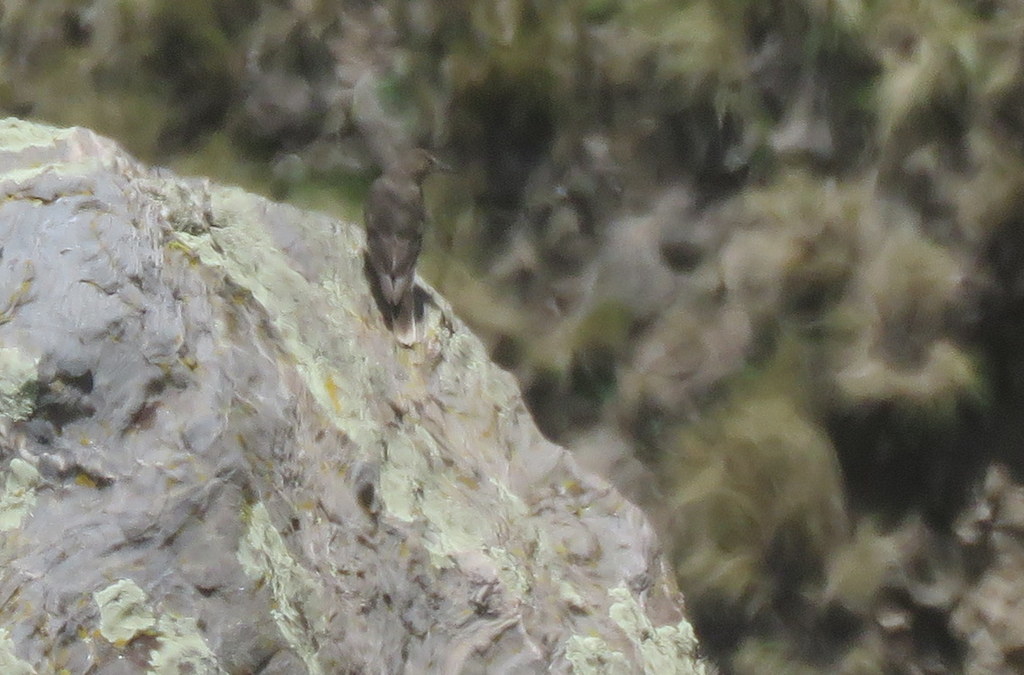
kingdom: Animalia
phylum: Chordata
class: Aves
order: Passeriformes
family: Tyrannidae
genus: Agriornis
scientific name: Agriornis montanus
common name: Black-billed shrike-tyrant
